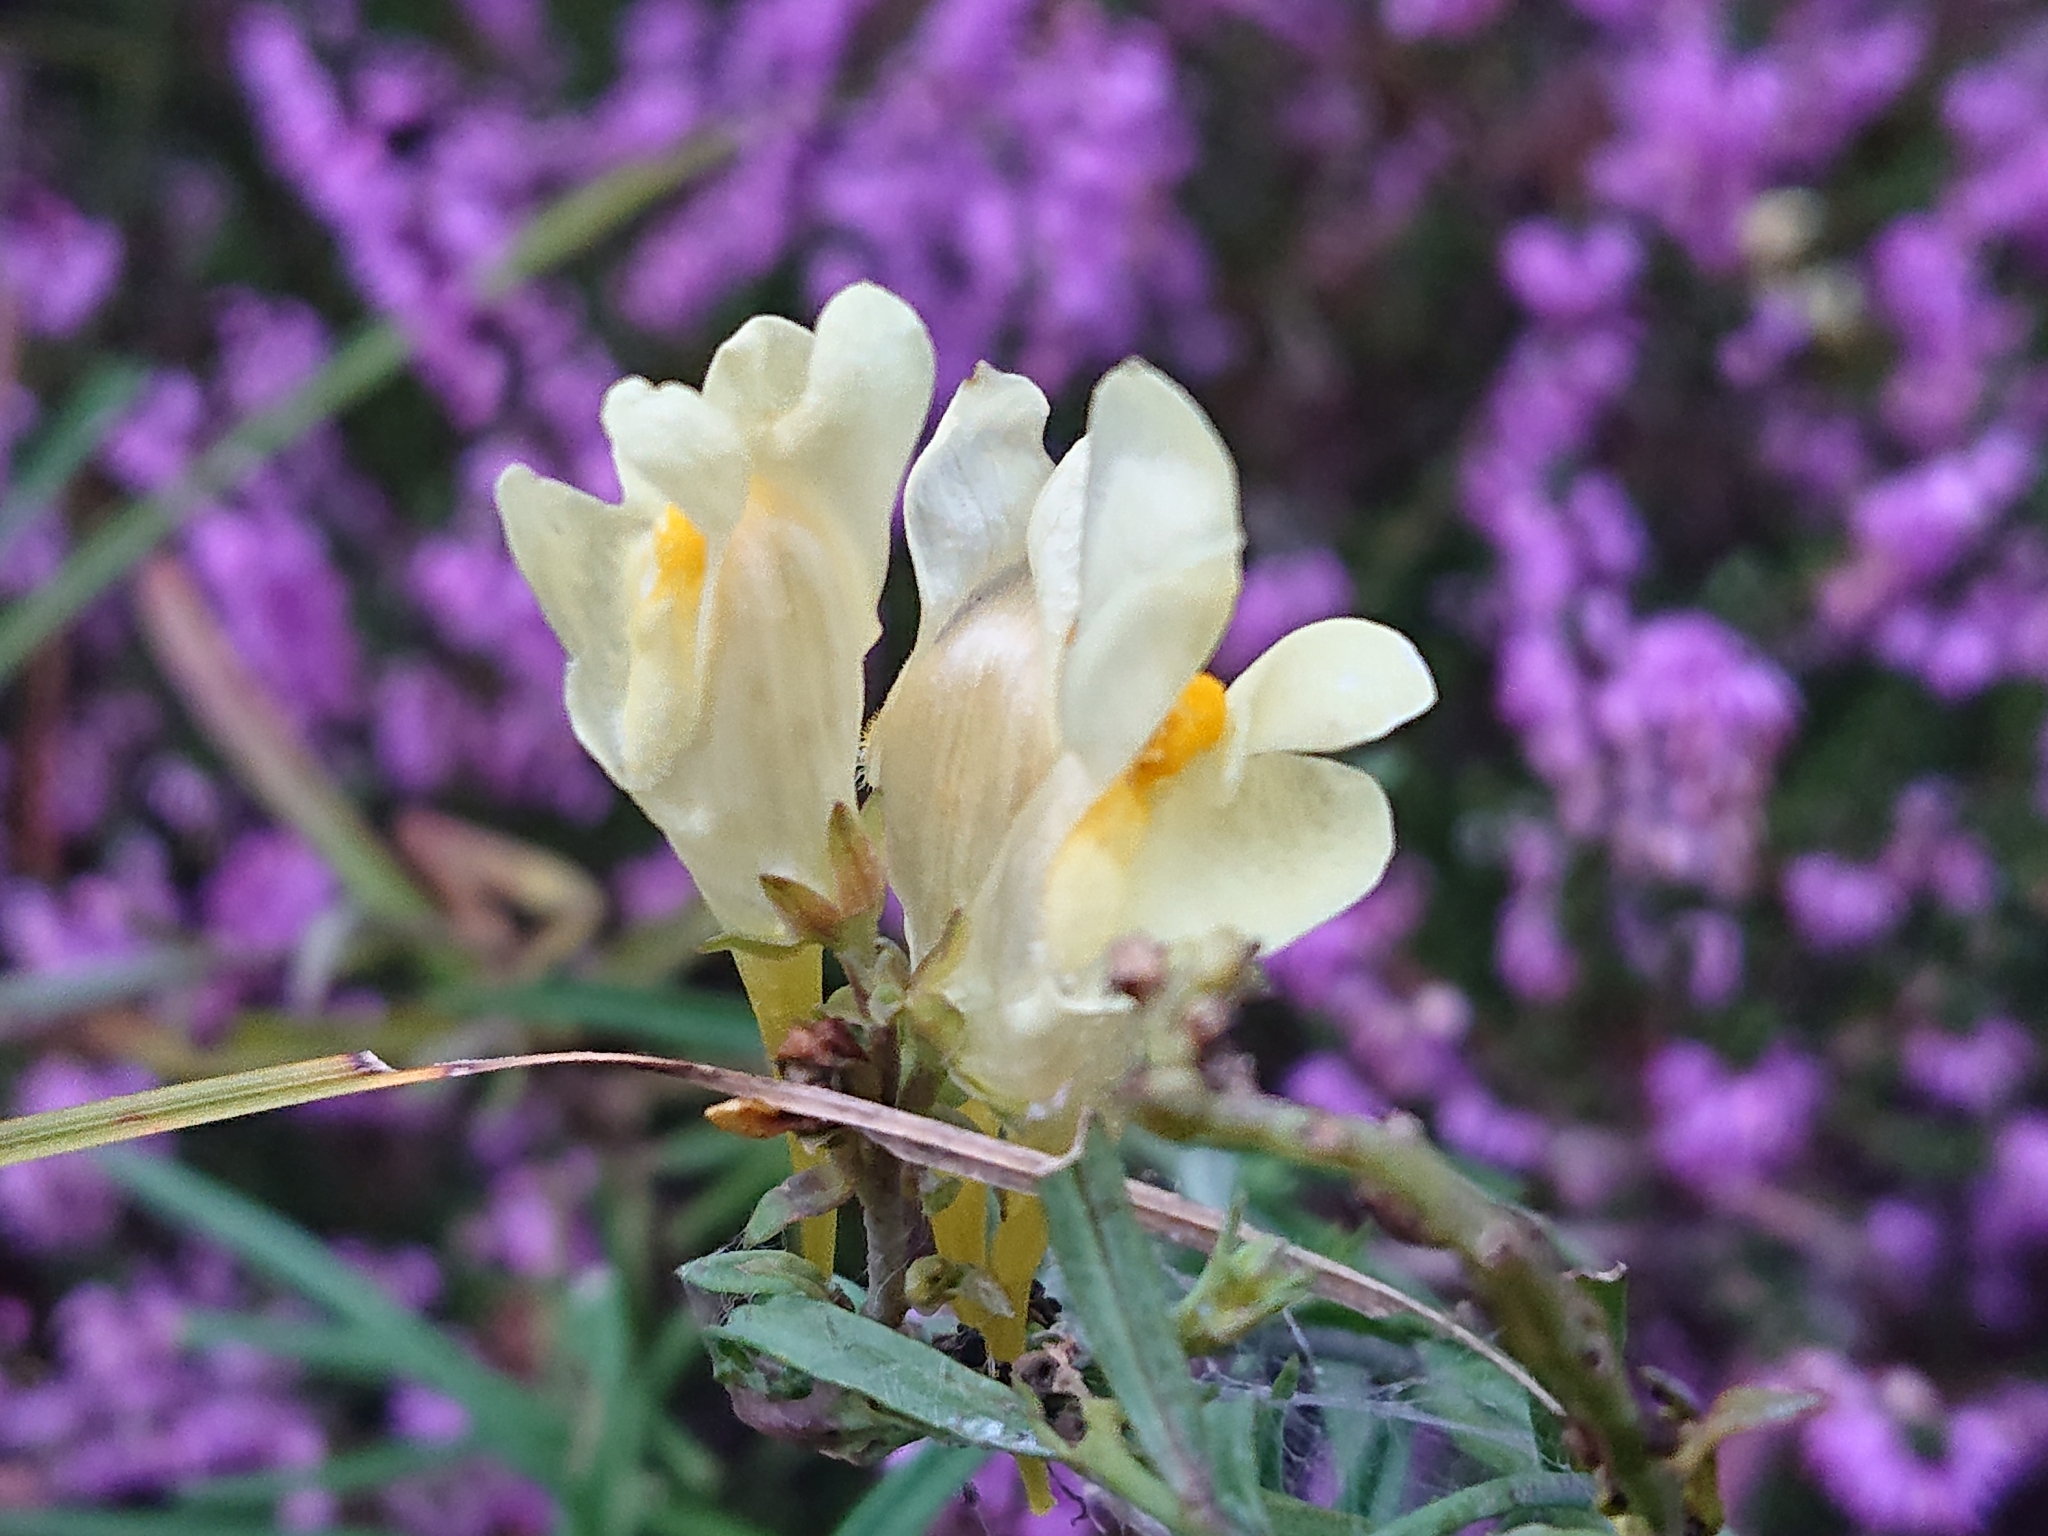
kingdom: Plantae
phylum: Tracheophyta
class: Magnoliopsida
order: Lamiales
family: Plantaginaceae
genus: Linaria
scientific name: Linaria vulgaris
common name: Butter and eggs
